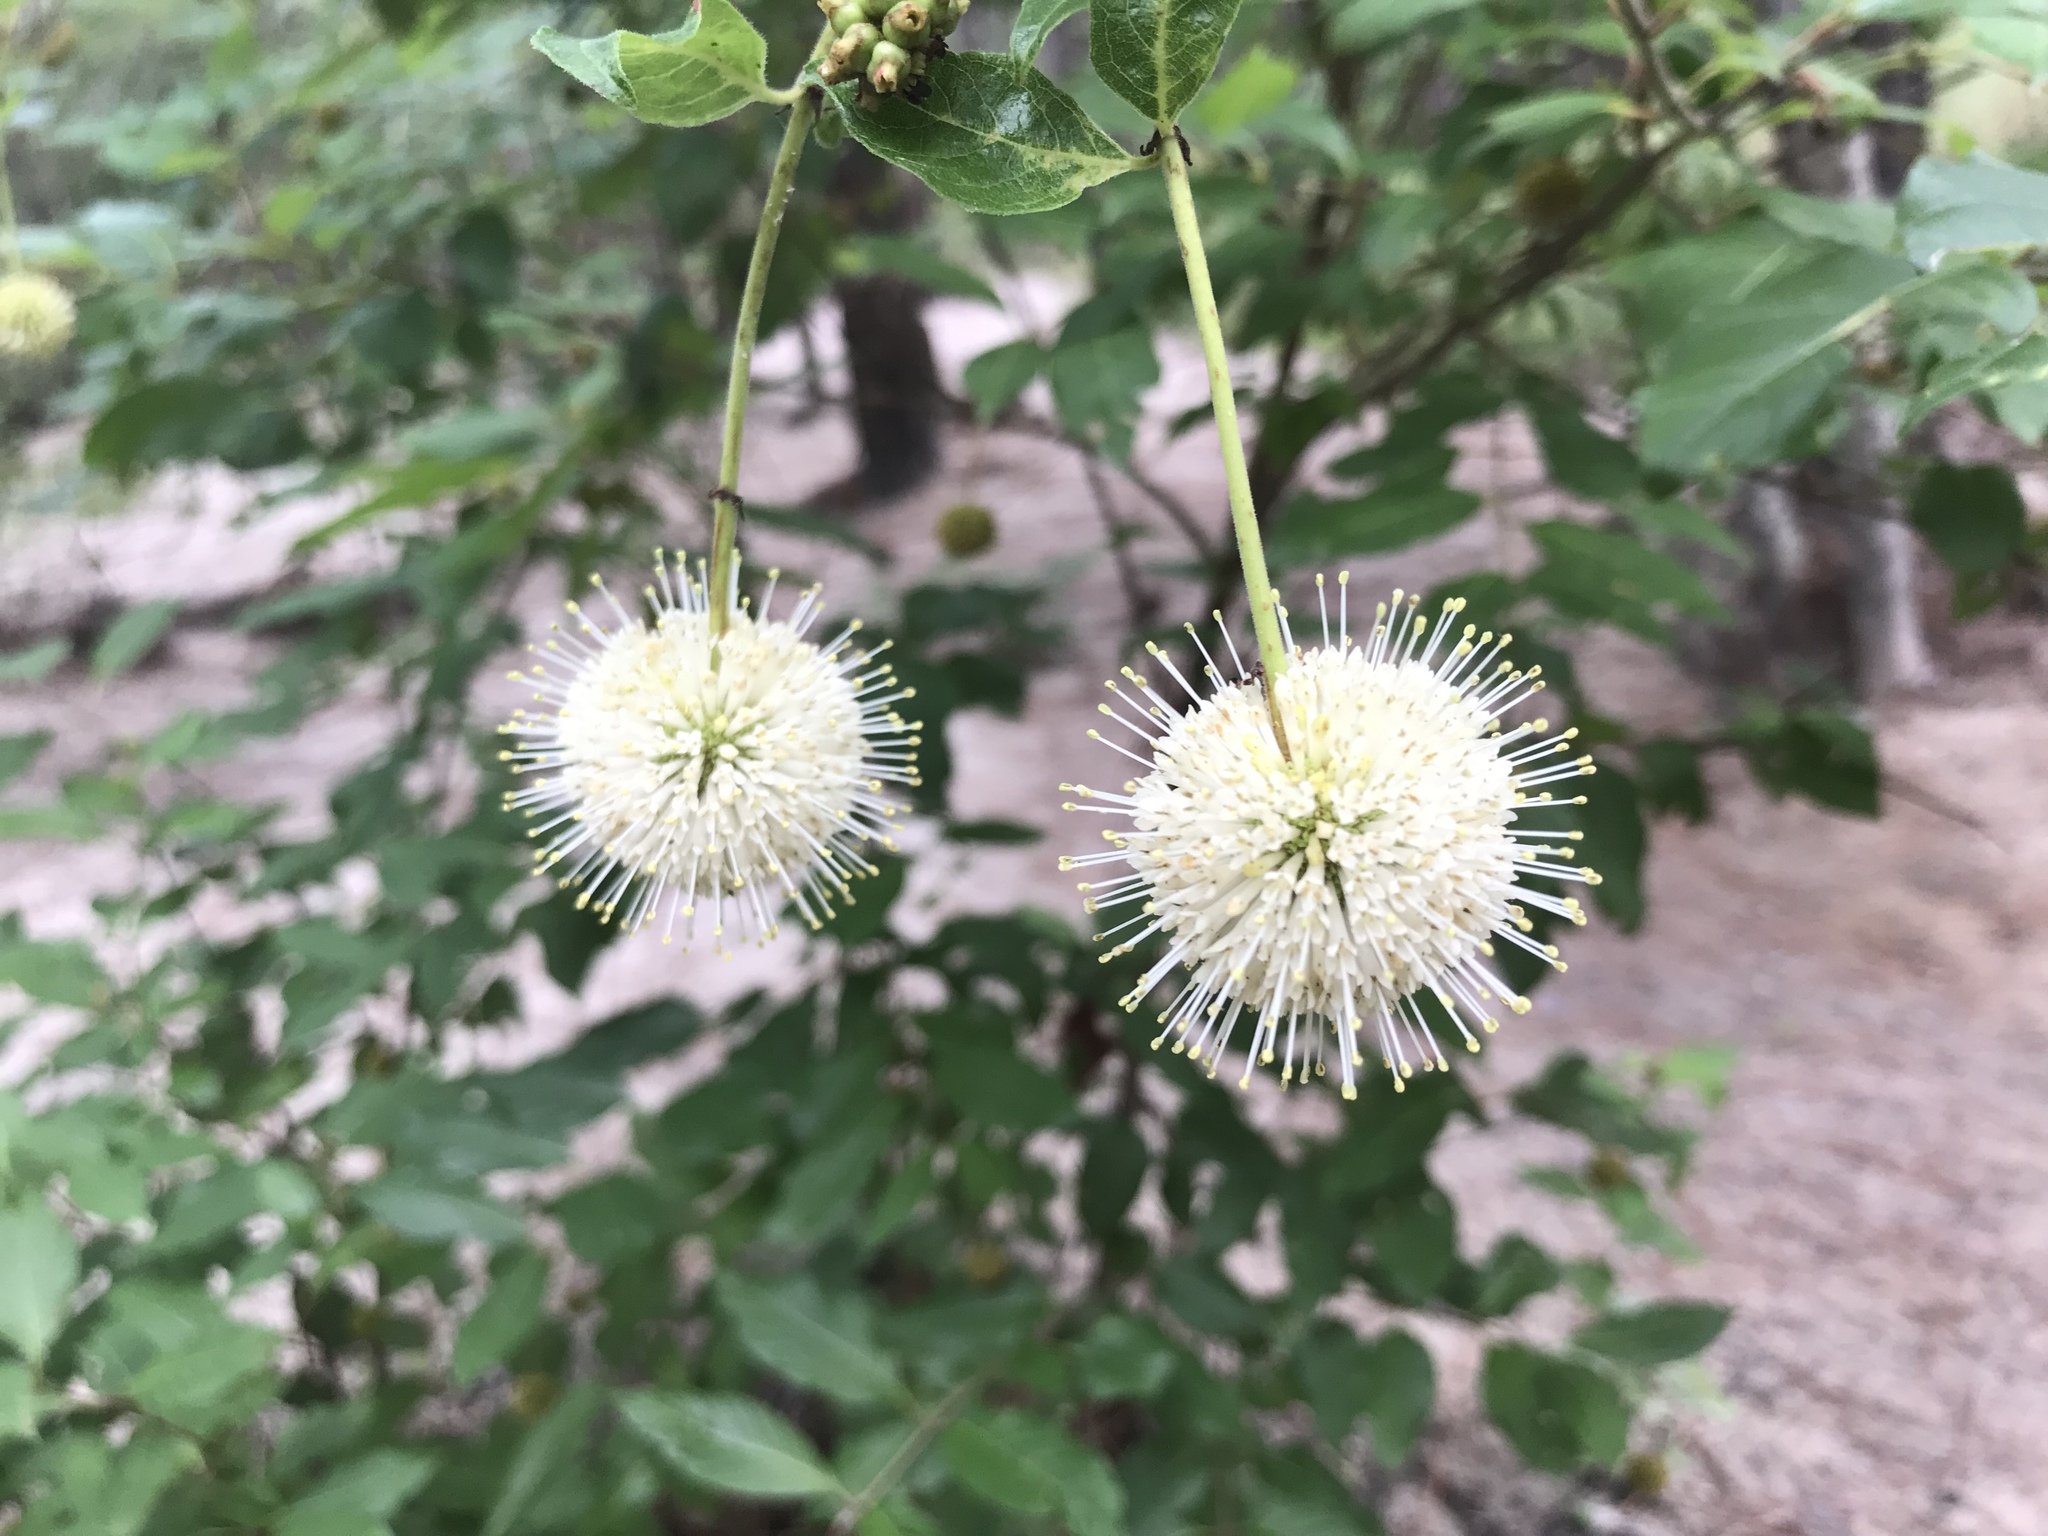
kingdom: Plantae
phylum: Tracheophyta
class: Magnoliopsida
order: Gentianales
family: Rubiaceae
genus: Cephalanthus
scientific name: Cephalanthus occidentalis
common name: Button-willow
